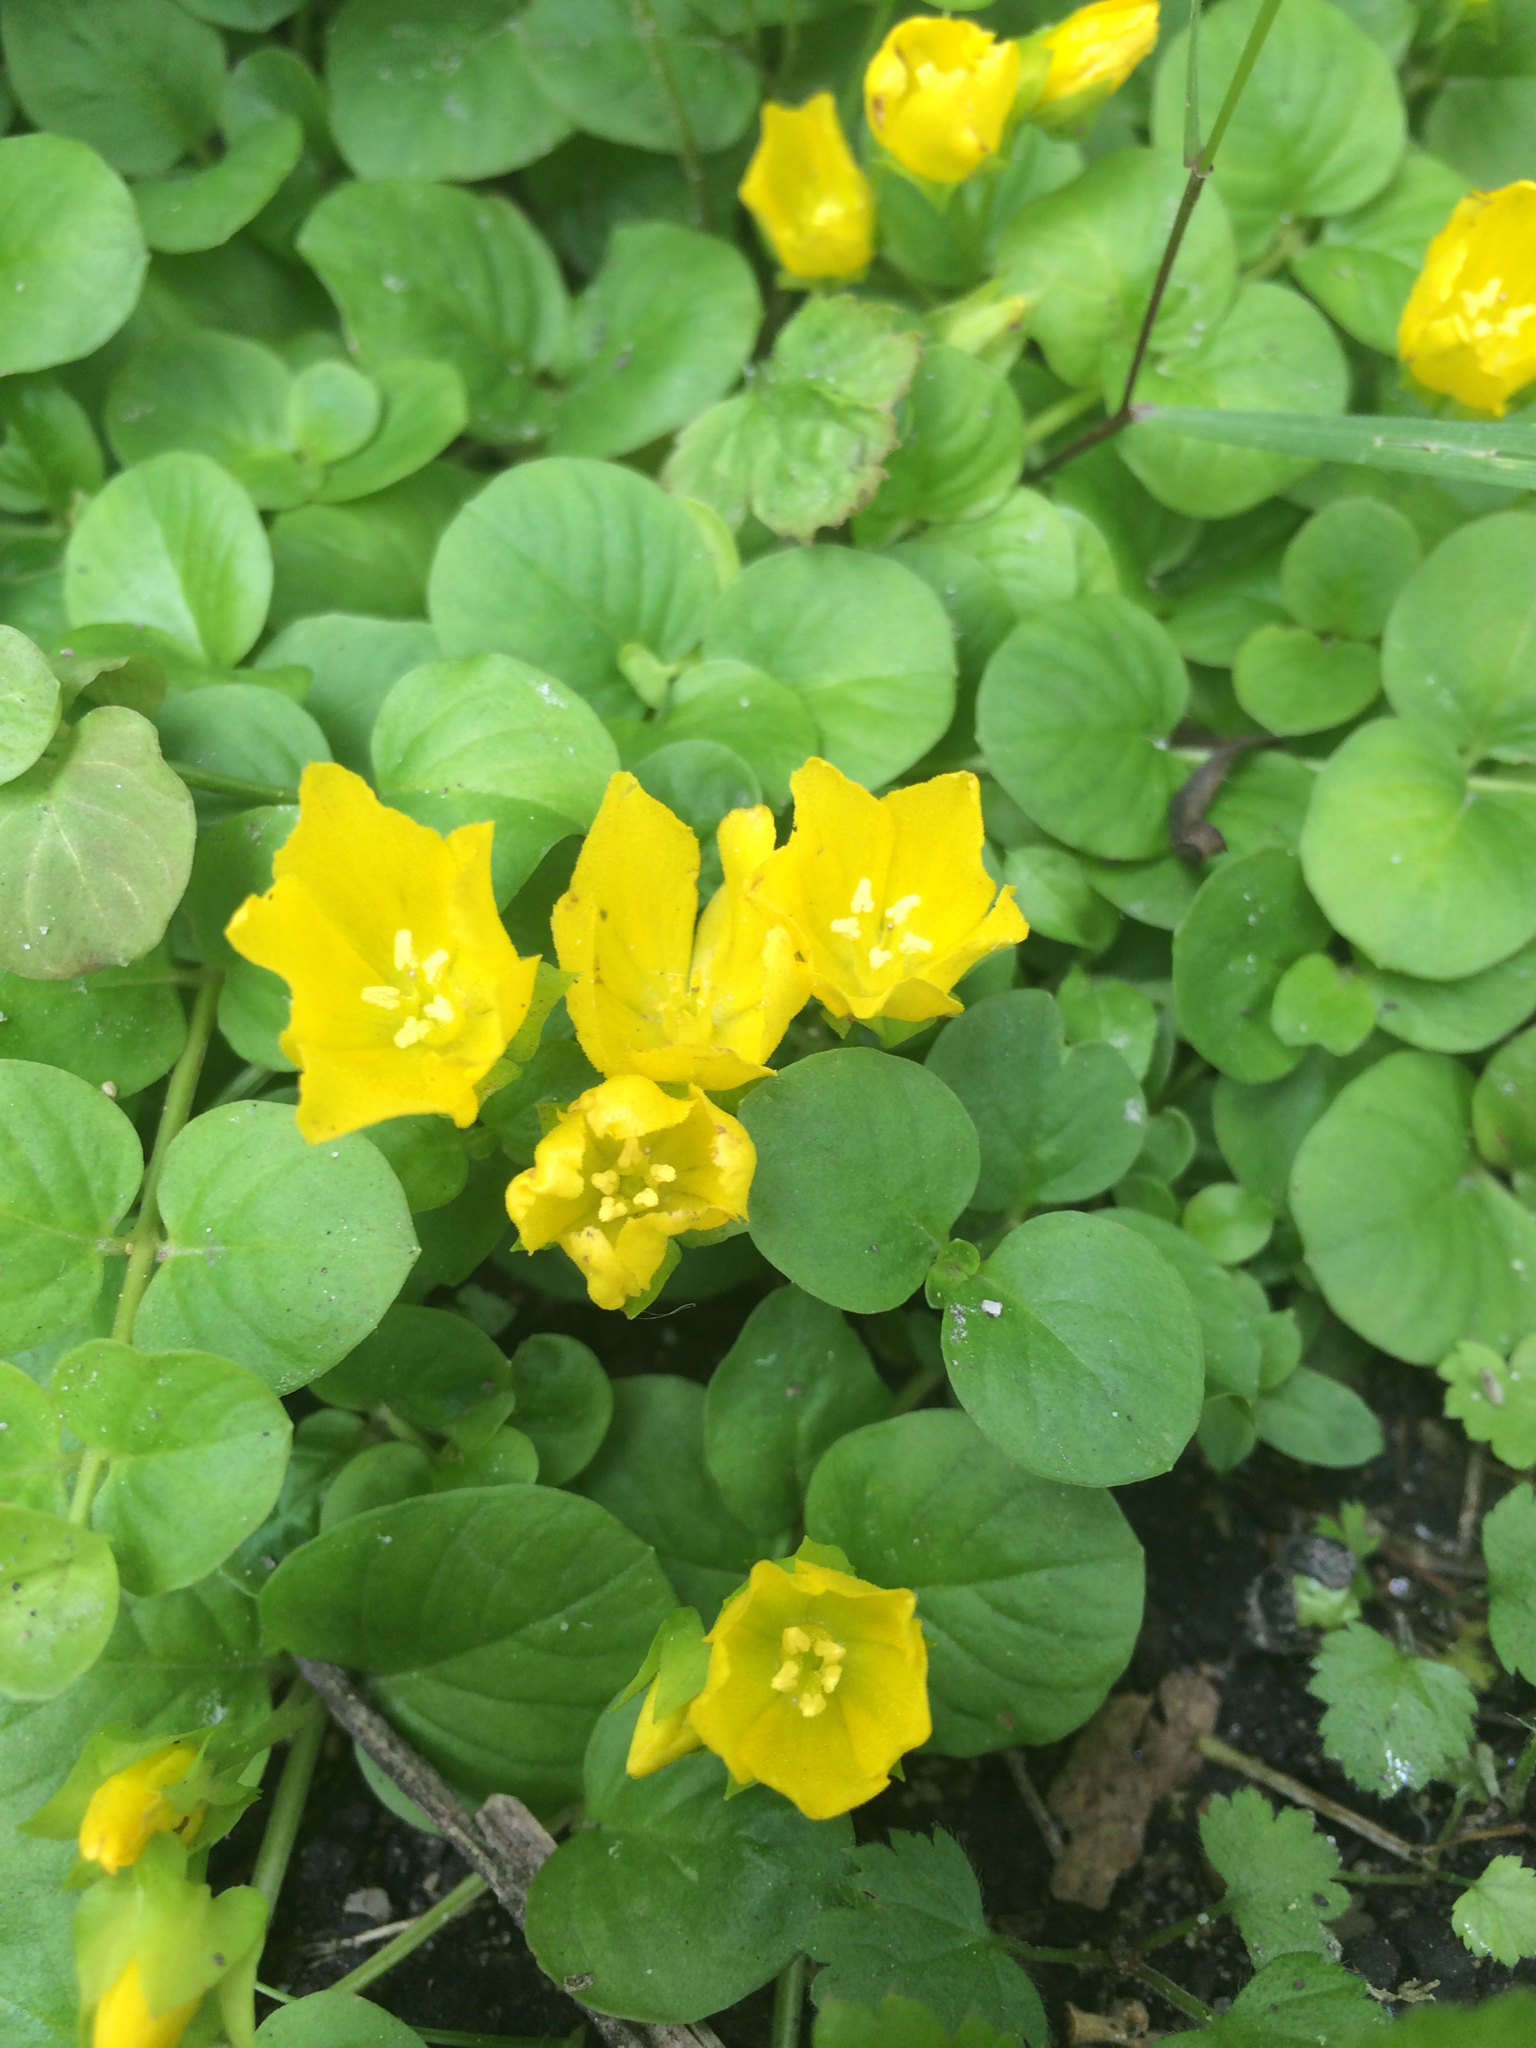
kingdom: Plantae
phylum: Tracheophyta
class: Magnoliopsida
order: Ericales
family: Primulaceae
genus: Lysimachia
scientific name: Lysimachia nummularia
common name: Moneywort
